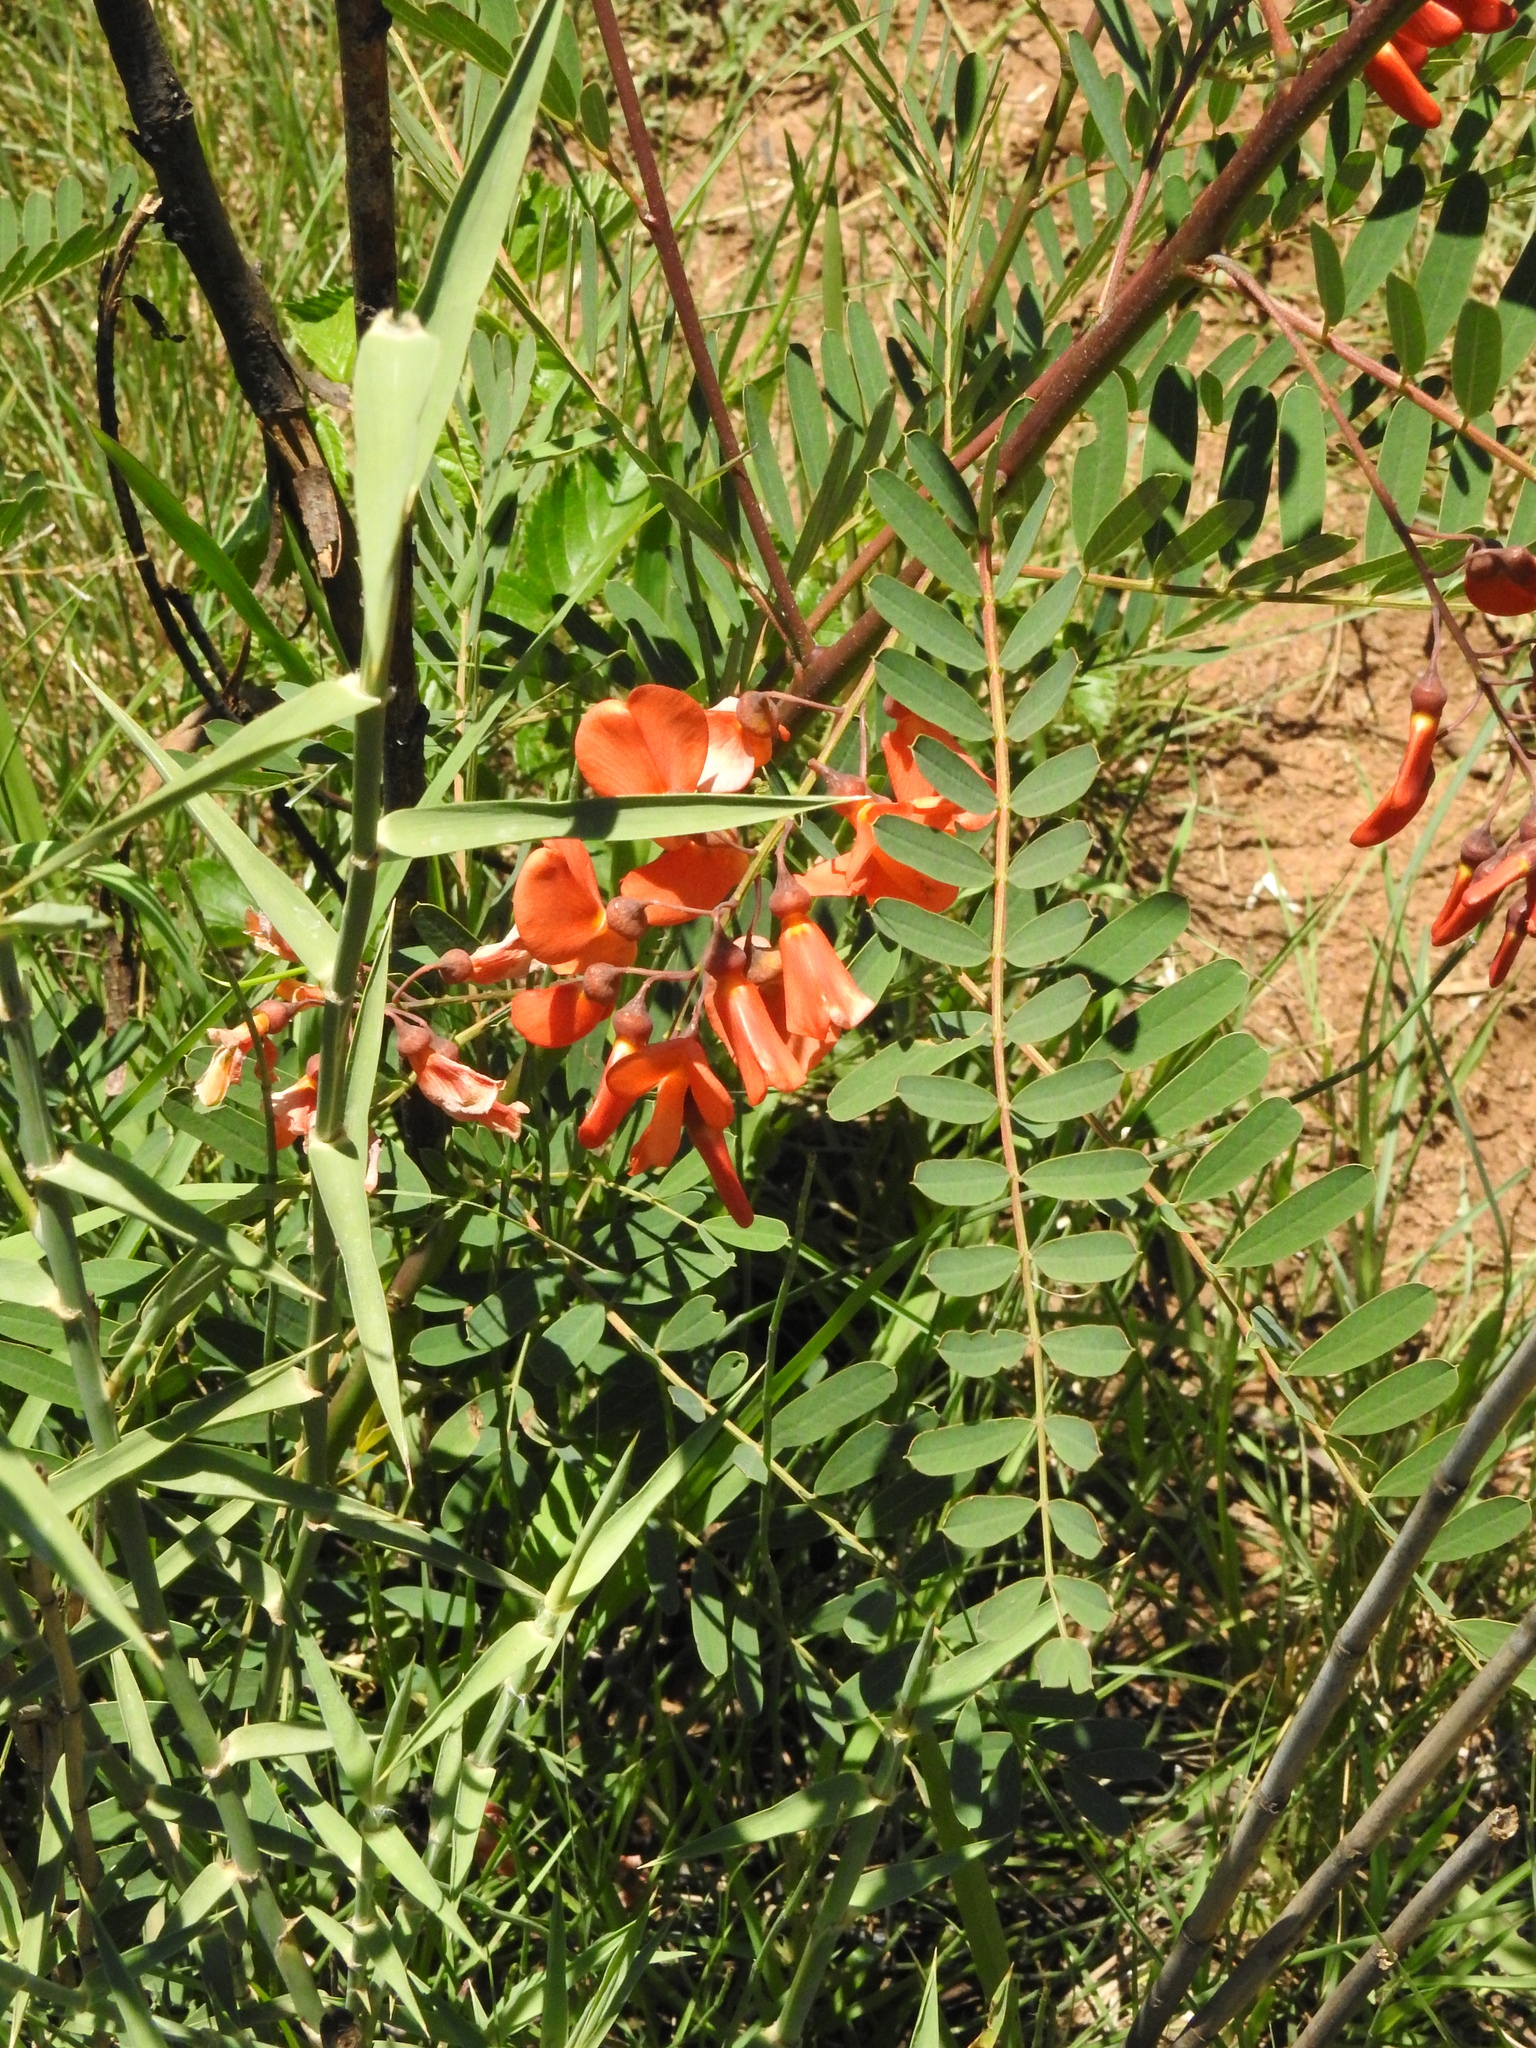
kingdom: Plantae
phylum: Tracheophyta
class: Magnoliopsida
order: Fabales
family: Fabaceae
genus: Sesbania
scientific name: Sesbania punicea
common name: Rattlebox
